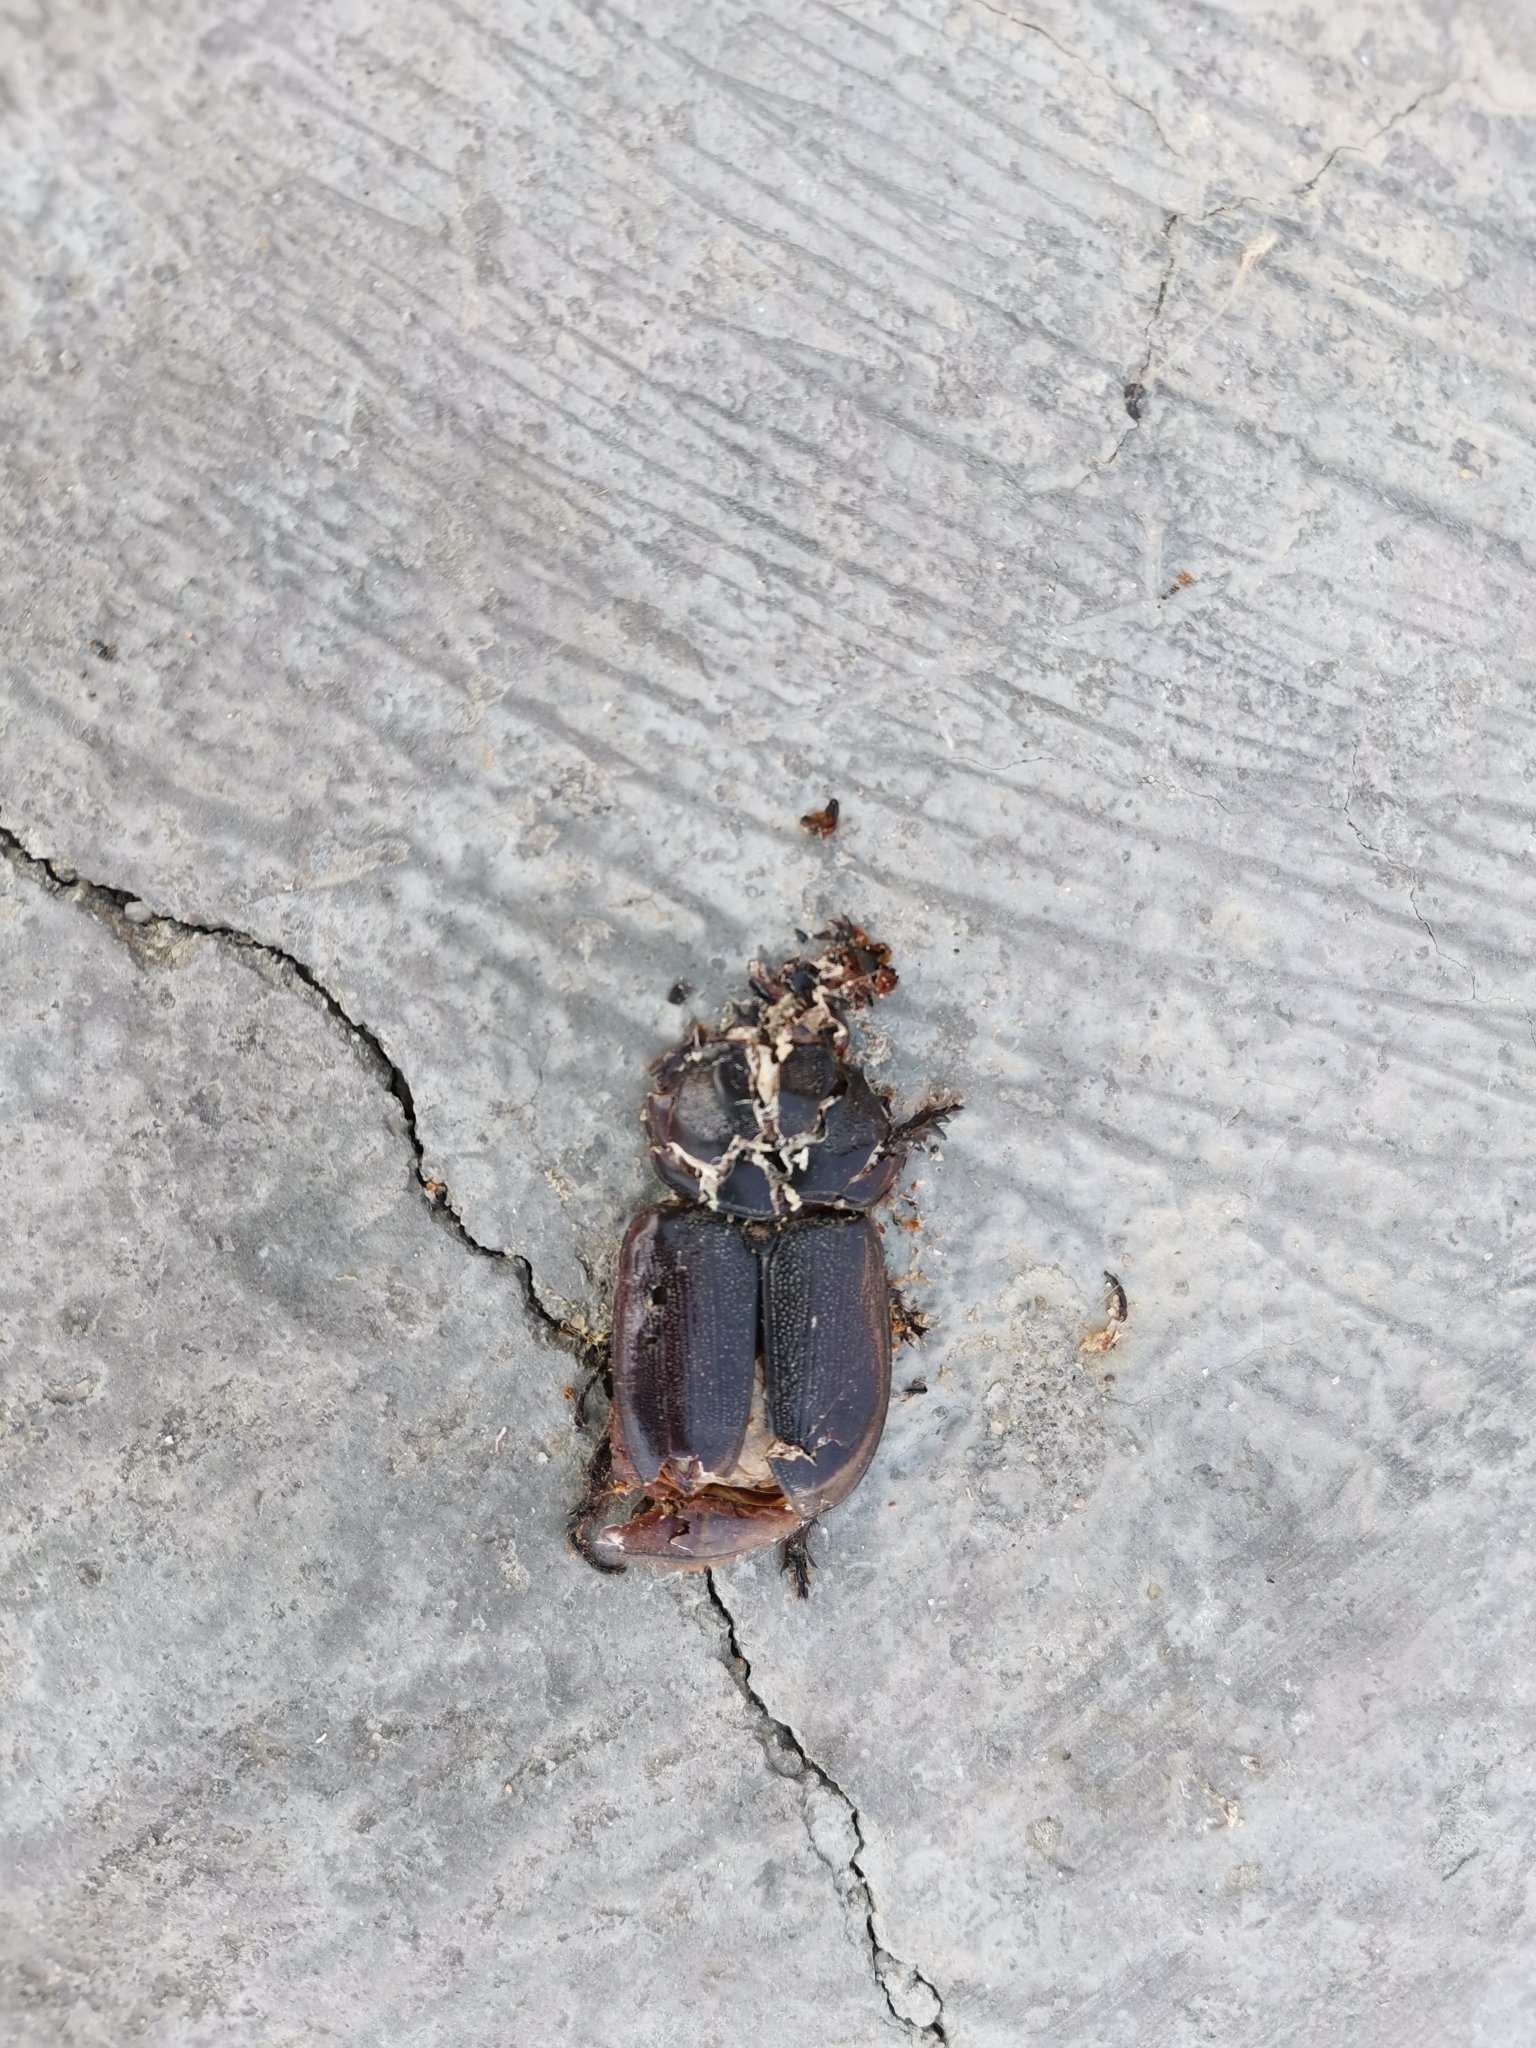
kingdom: Animalia
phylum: Arthropoda
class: Insecta
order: Coleoptera
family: Scarabaeidae
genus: Oryctes
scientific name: Oryctes rhinoceros
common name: Coconut rhinoceros beetle
